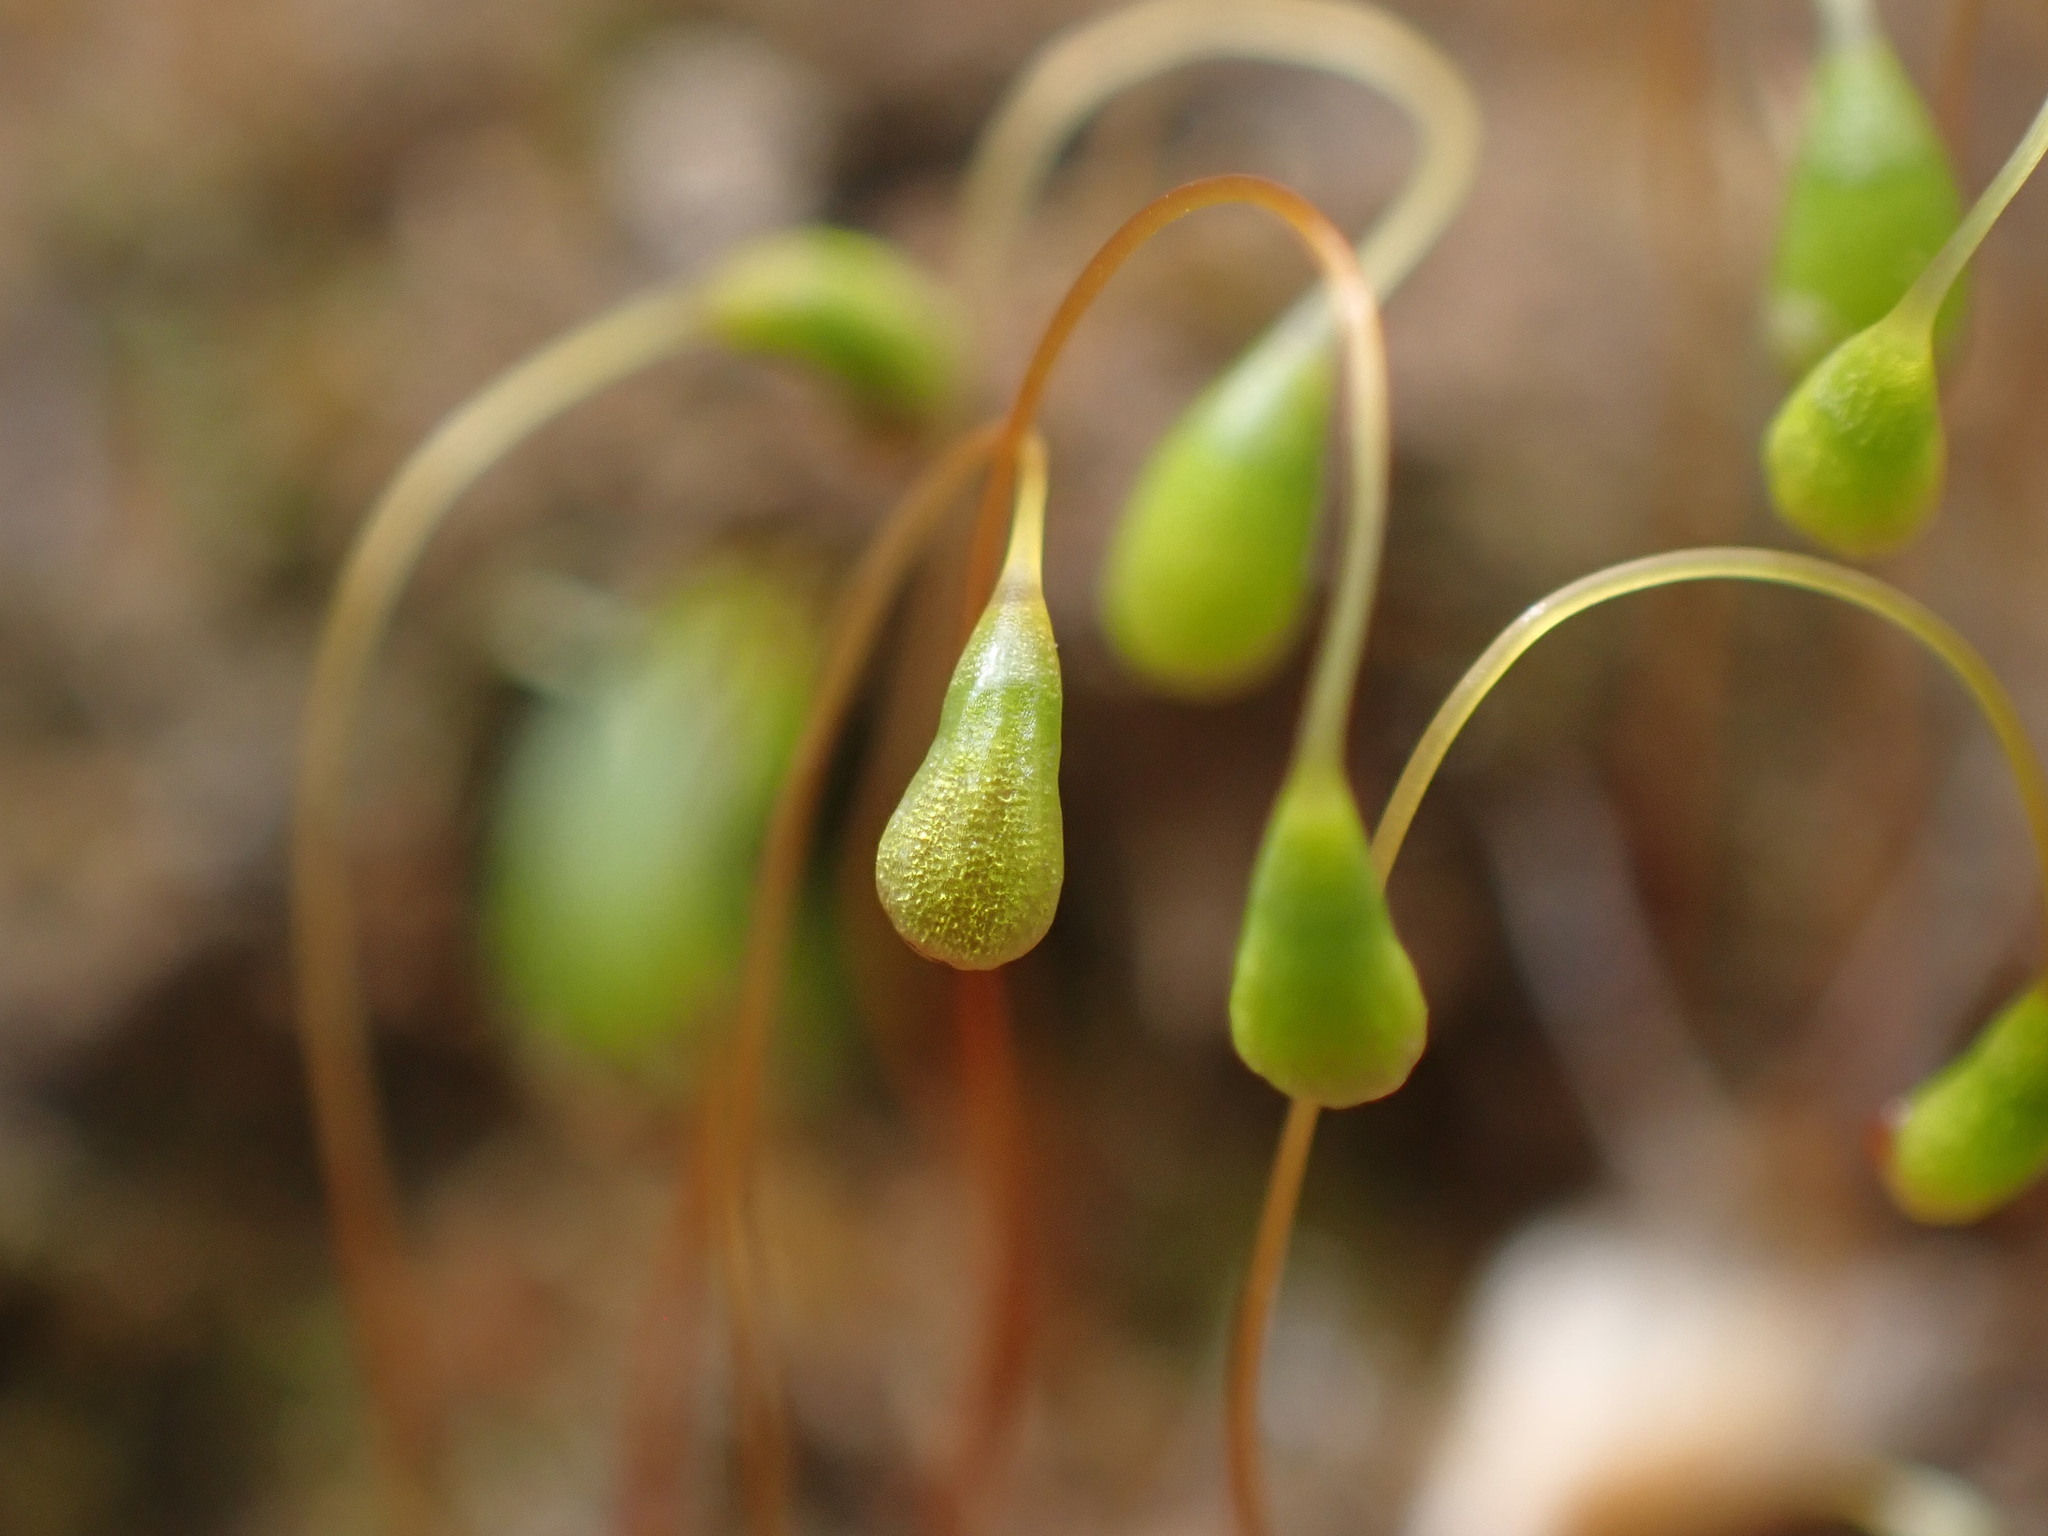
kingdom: Plantae
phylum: Bryophyta
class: Bryopsida
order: Funariales
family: Funariaceae
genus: Funaria
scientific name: Funaria hygrometrica
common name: Common cord moss
